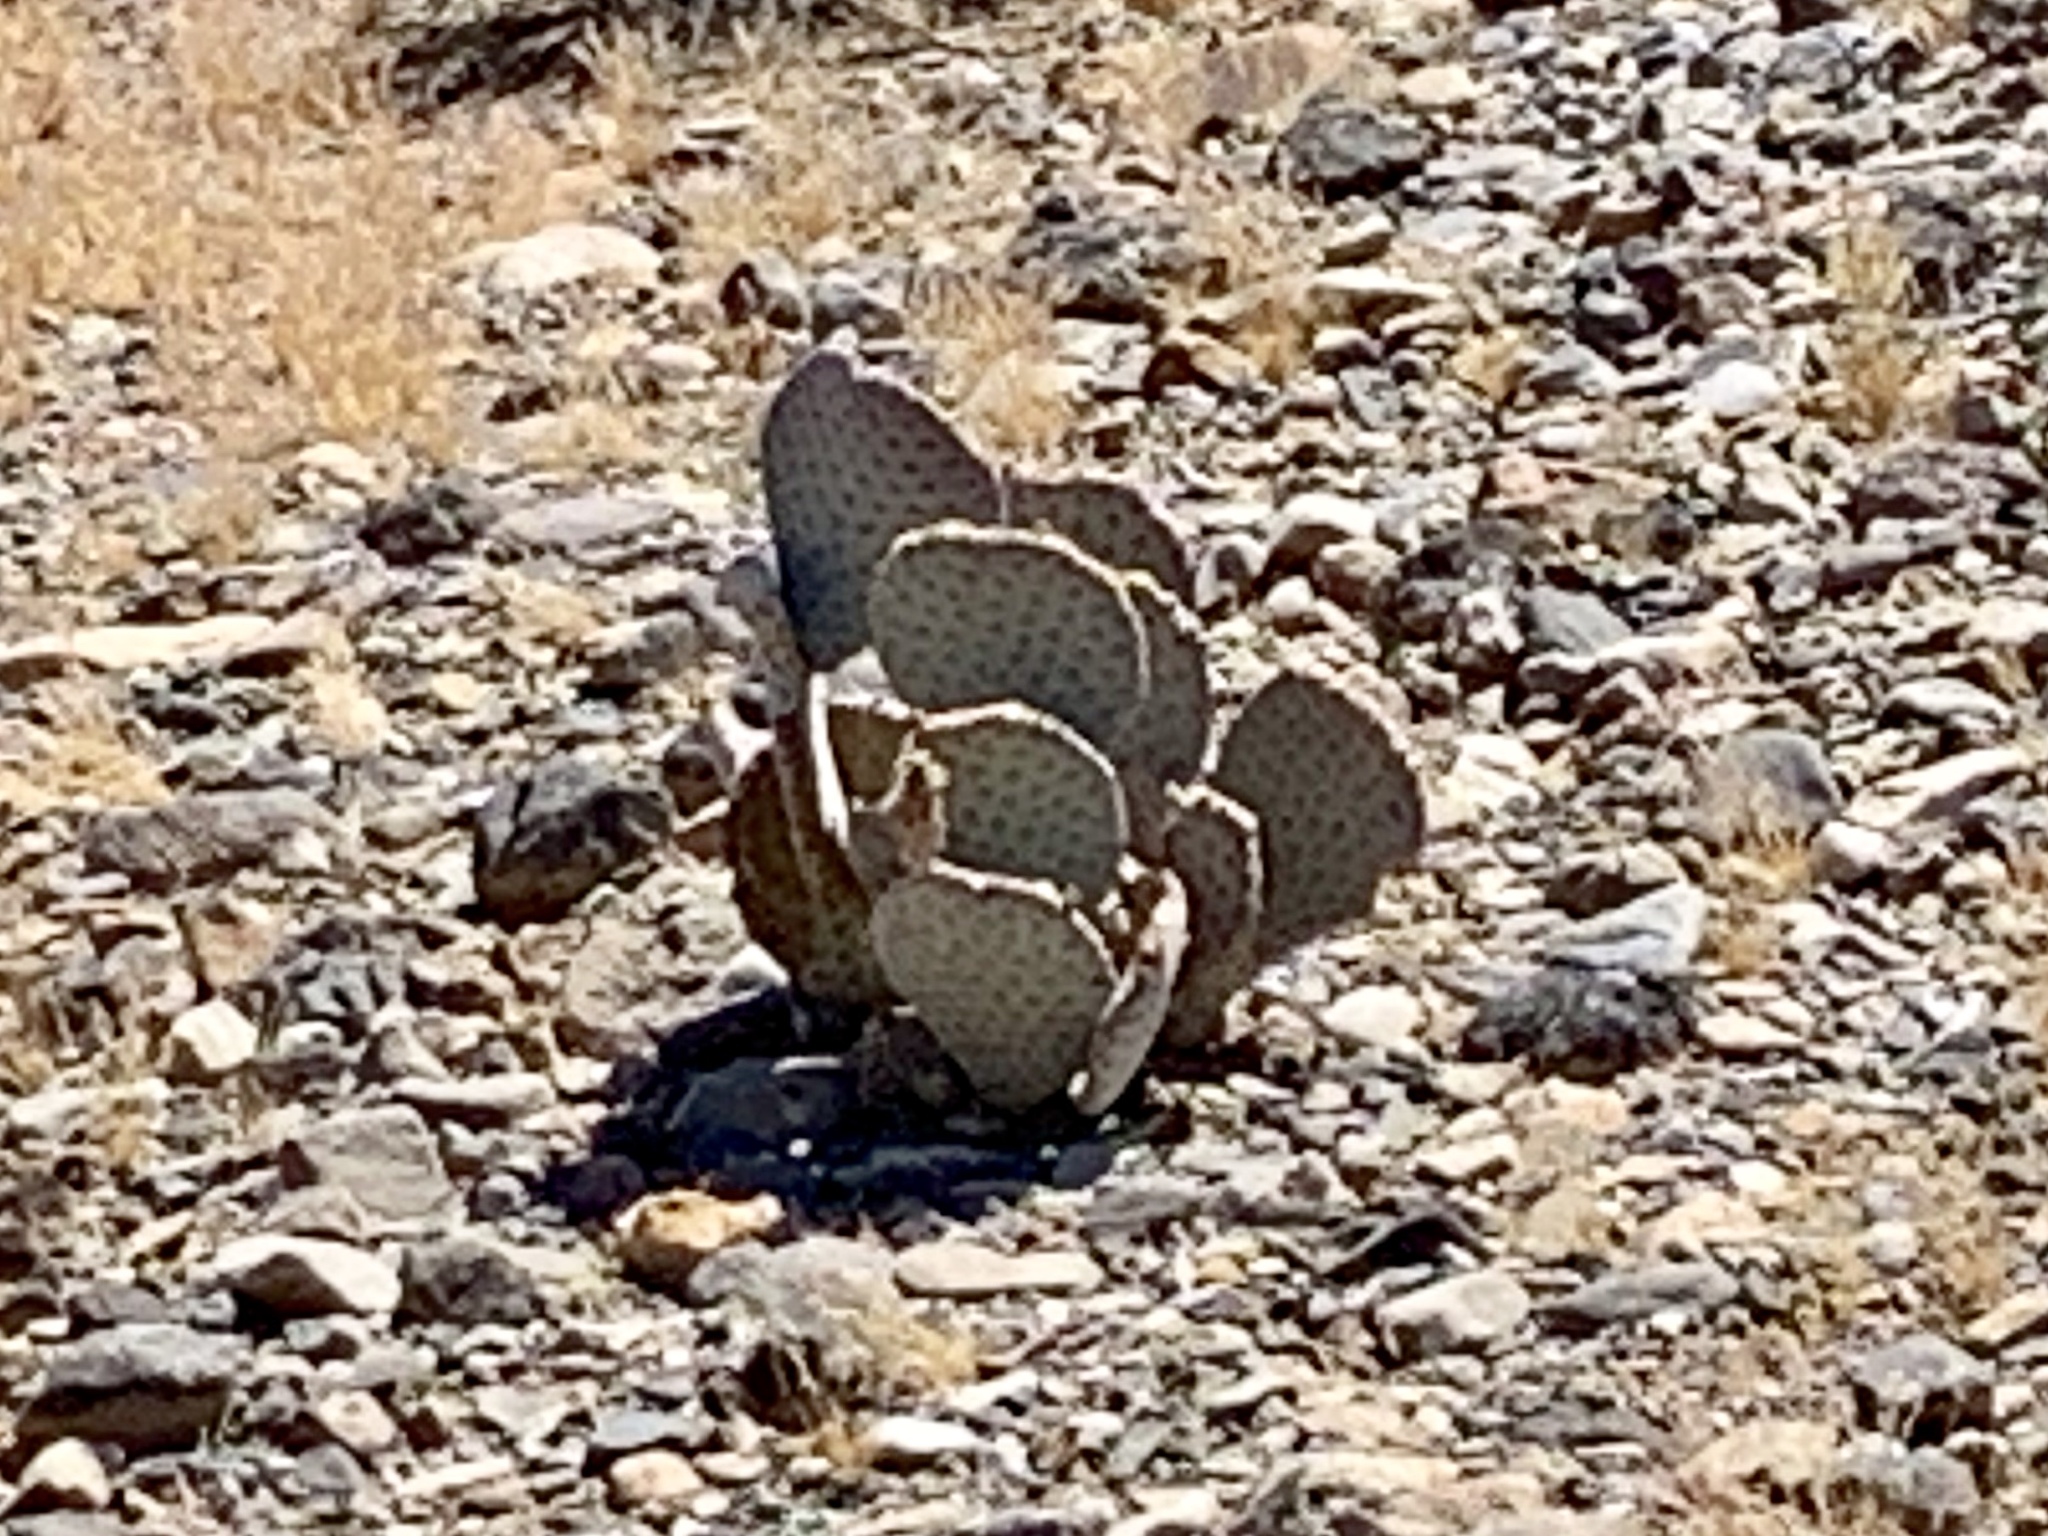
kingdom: Plantae
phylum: Tracheophyta
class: Magnoliopsida
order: Caryophyllales
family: Cactaceae
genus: Opuntia
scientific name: Opuntia basilaris
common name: Beavertail prickly-pear
